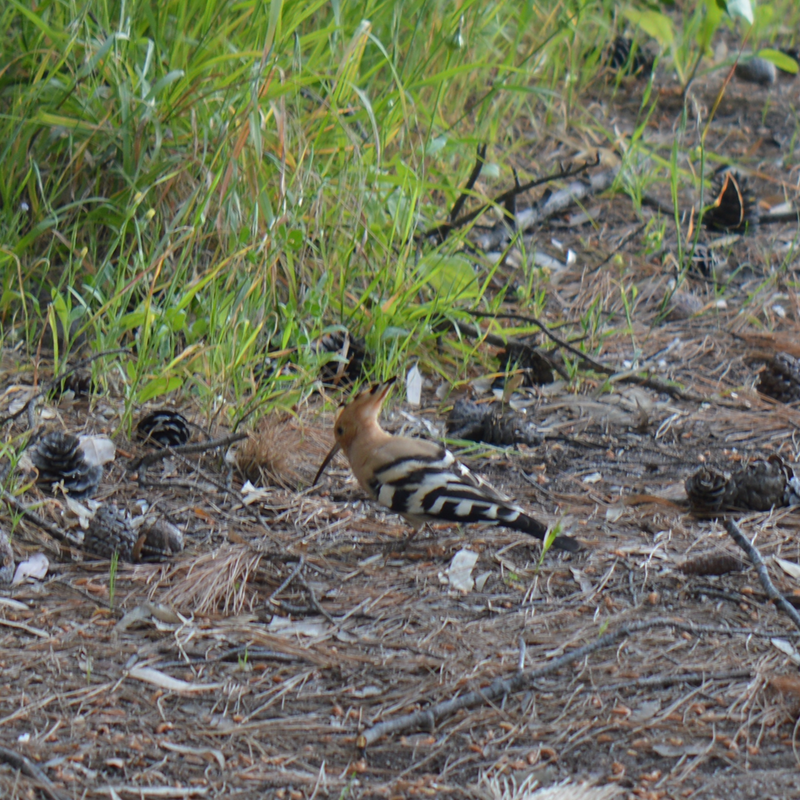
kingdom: Animalia
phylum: Chordata
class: Aves
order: Bucerotiformes
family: Upupidae
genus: Upupa
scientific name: Upupa epops
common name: Eurasian hoopoe
